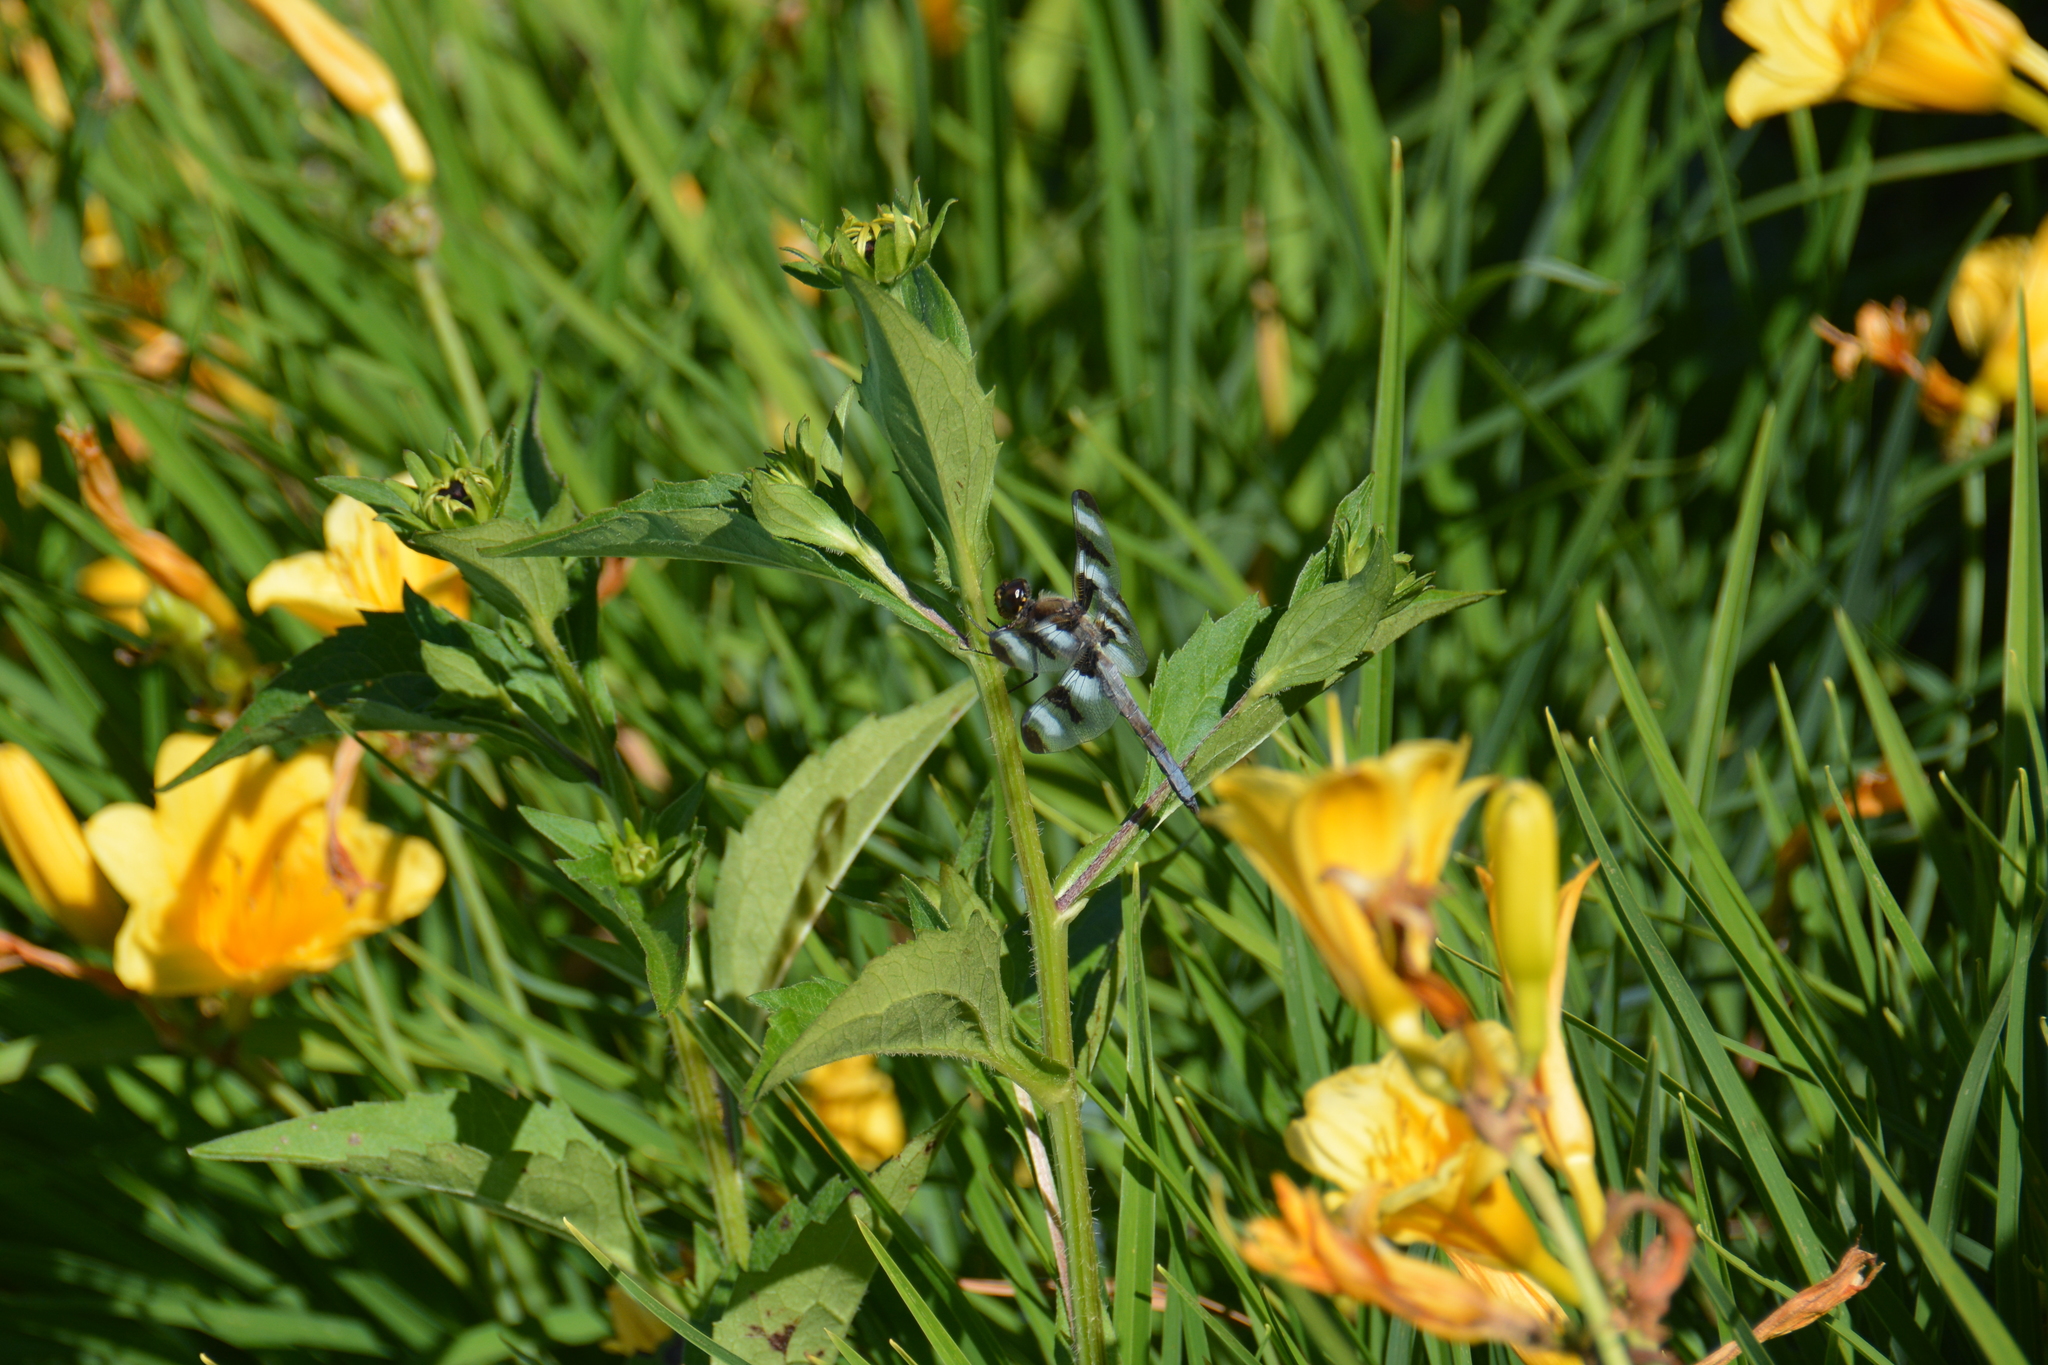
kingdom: Animalia
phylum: Arthropoda
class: Insecta
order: Odonata
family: Libellulidae
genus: Libellula
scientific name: Libellula pulchella
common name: Twelve-spotted skimmer
